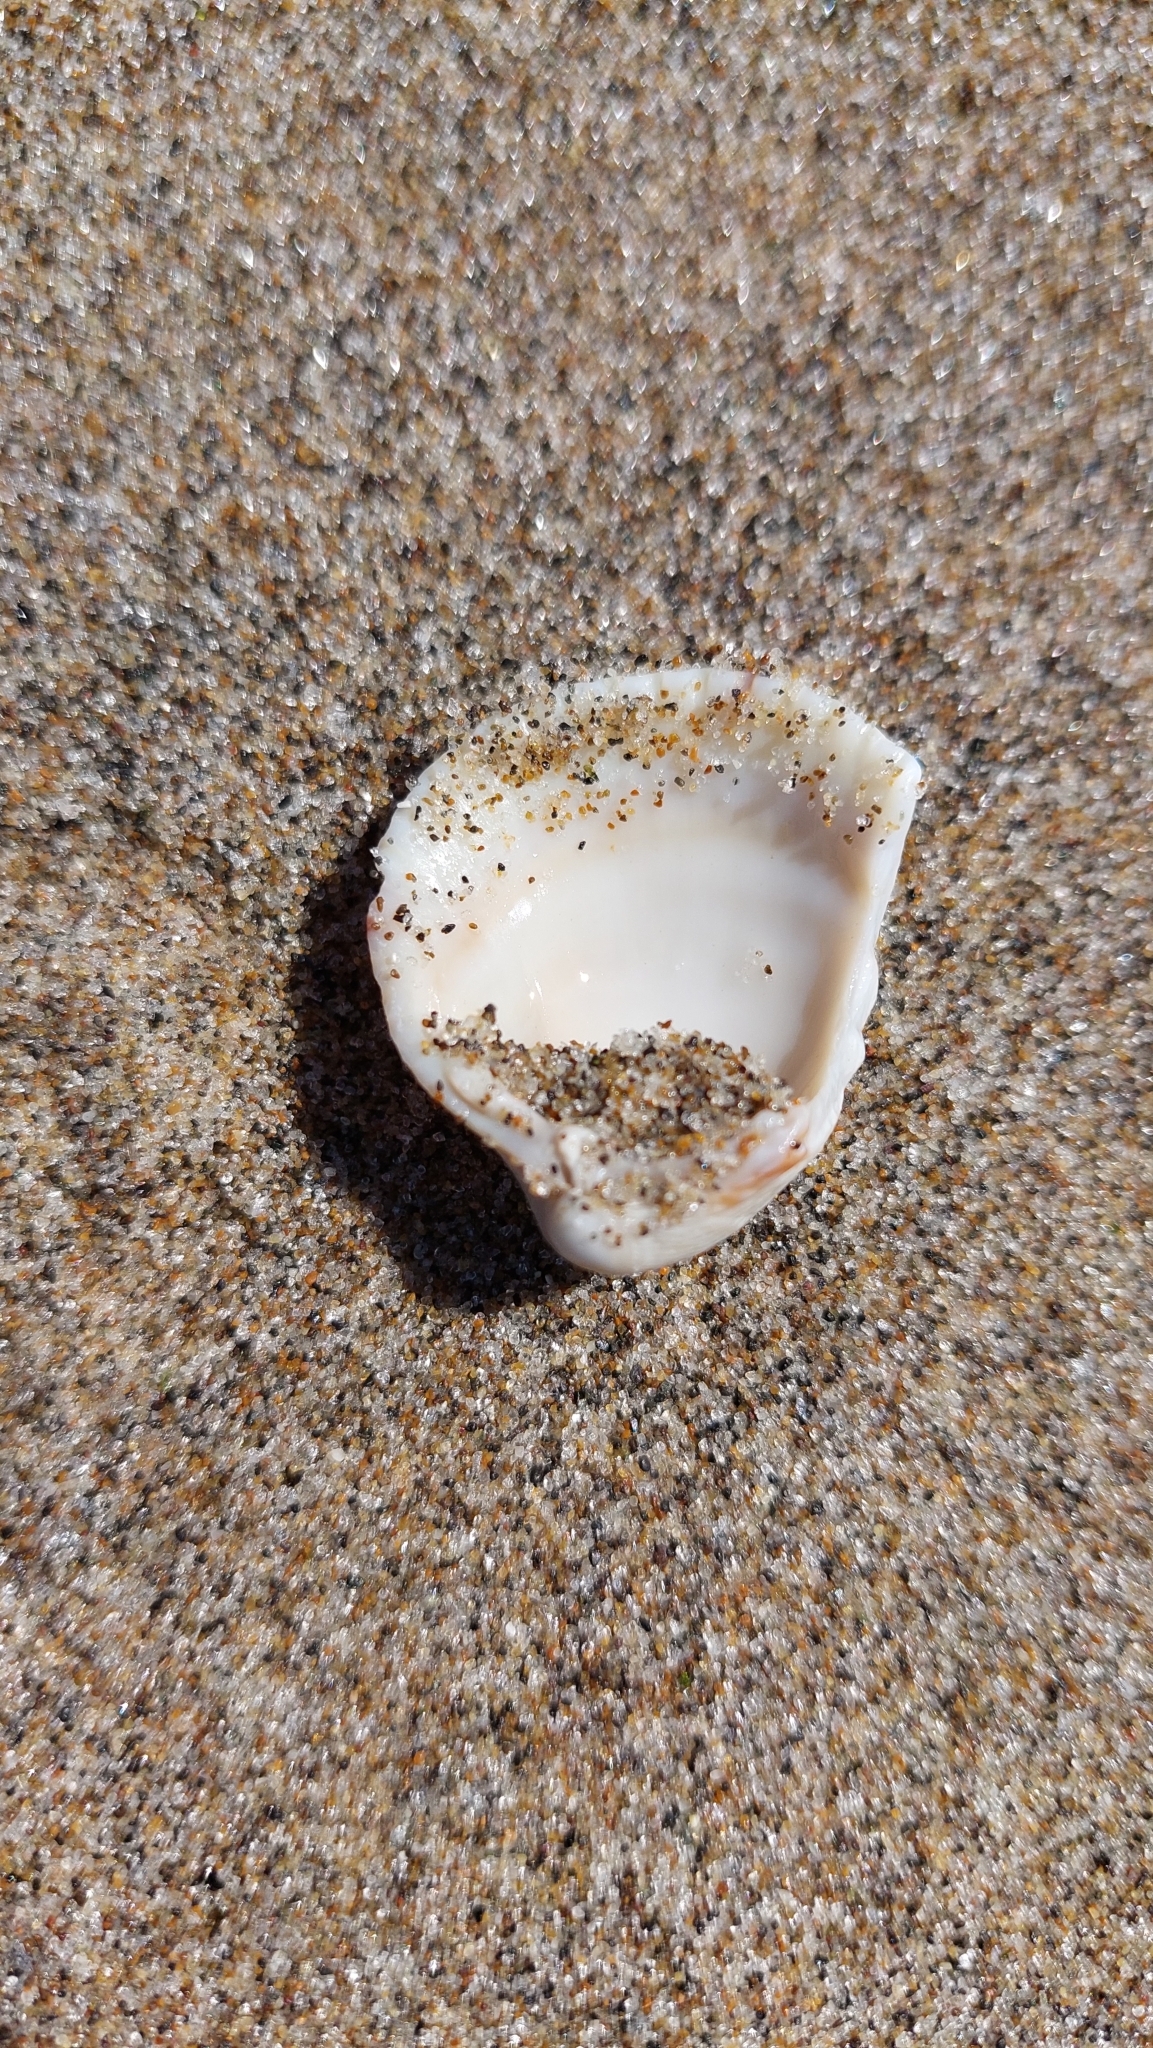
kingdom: Animalia
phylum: Mollusca
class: Bivalvia
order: Cardiida
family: Cardiidae
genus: Clinocardium
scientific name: Clinocardium nuttallii
